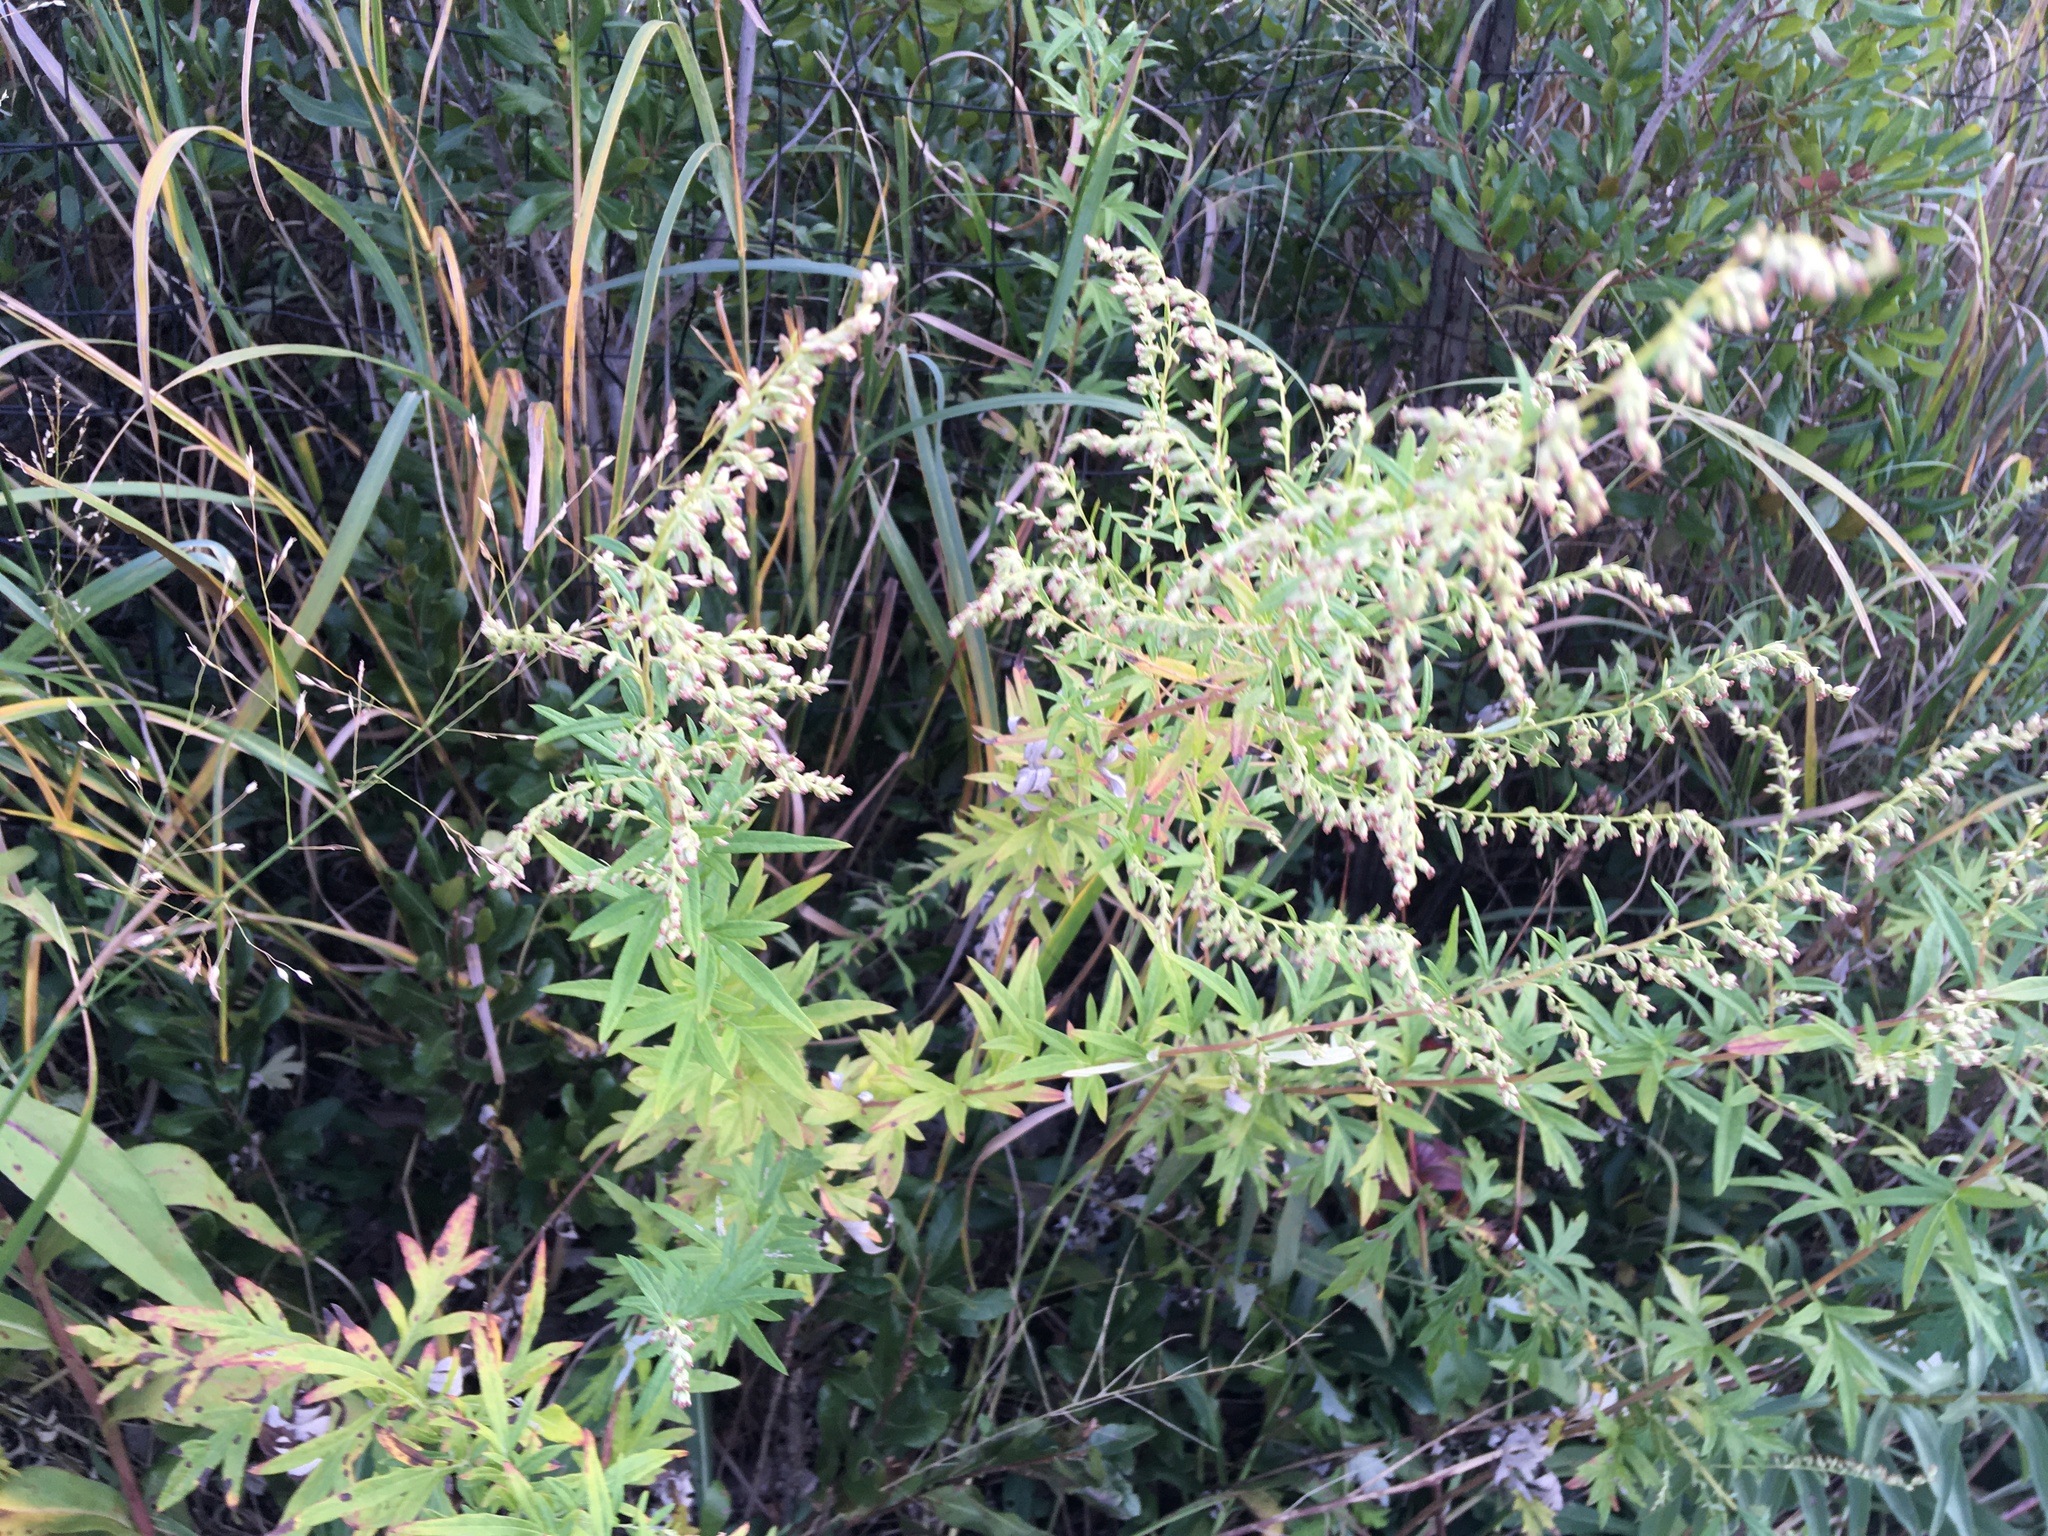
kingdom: Plantae
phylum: Tracheophyta
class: Magnoliopsida
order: Asterales
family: Asteraceae
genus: Artemisia
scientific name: Artemisia vulgaris
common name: Mugwort
